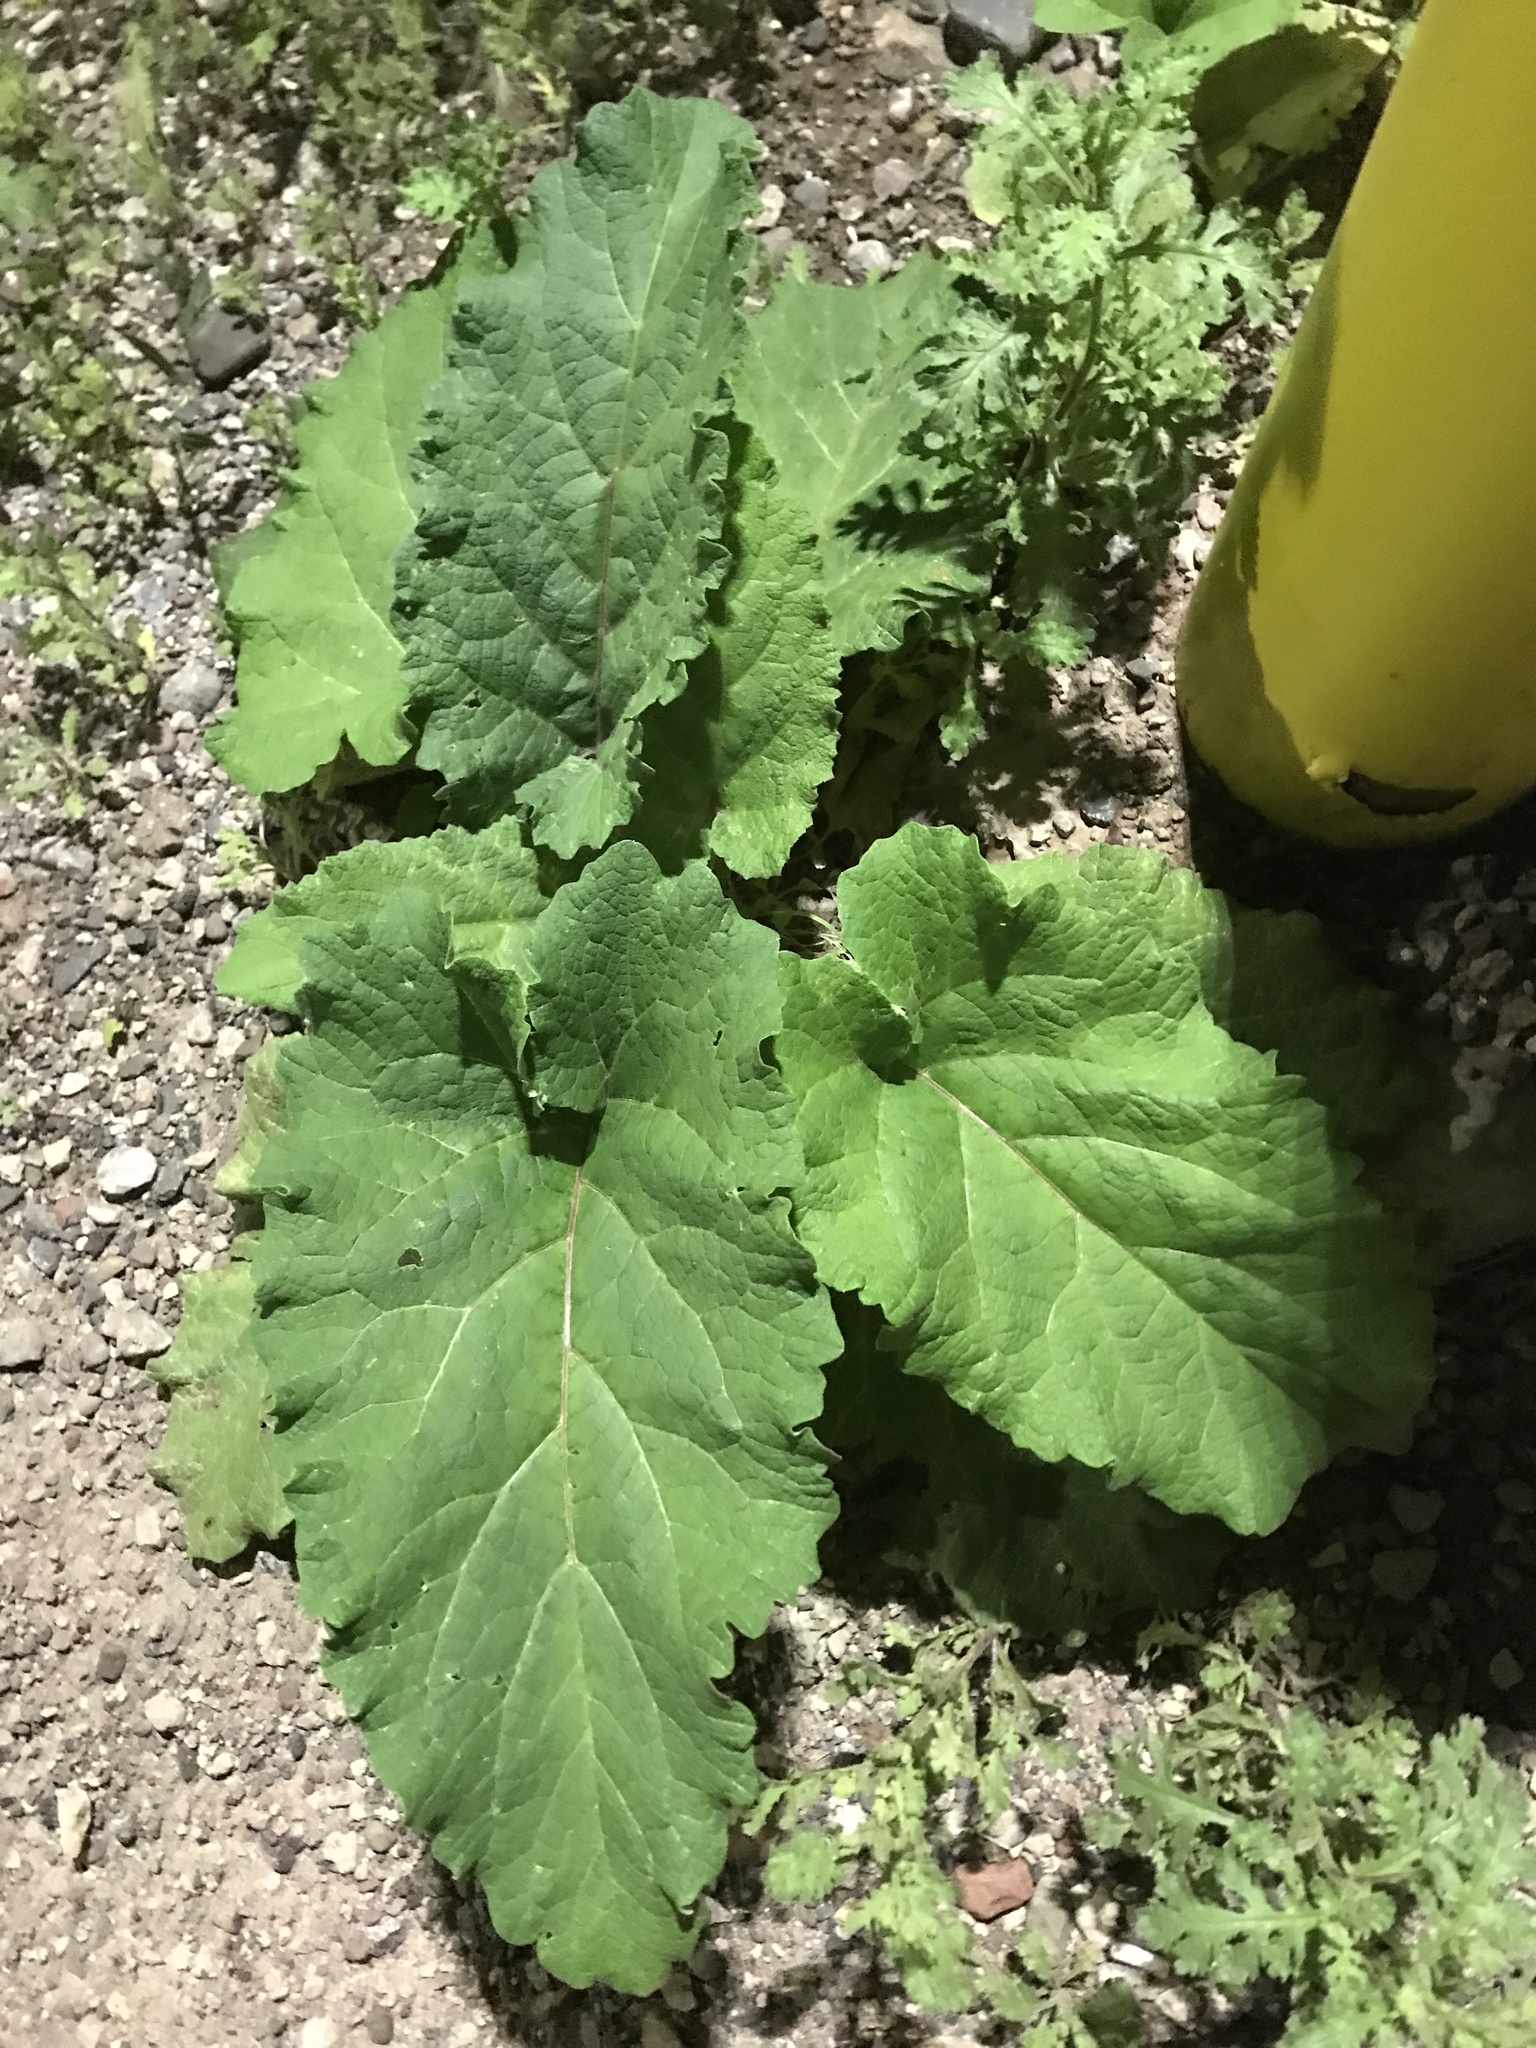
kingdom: Plantae
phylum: Tracheophyta
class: Magnoliopsida
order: Asterales
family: Asteraceae
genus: Arctium
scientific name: Arctium
